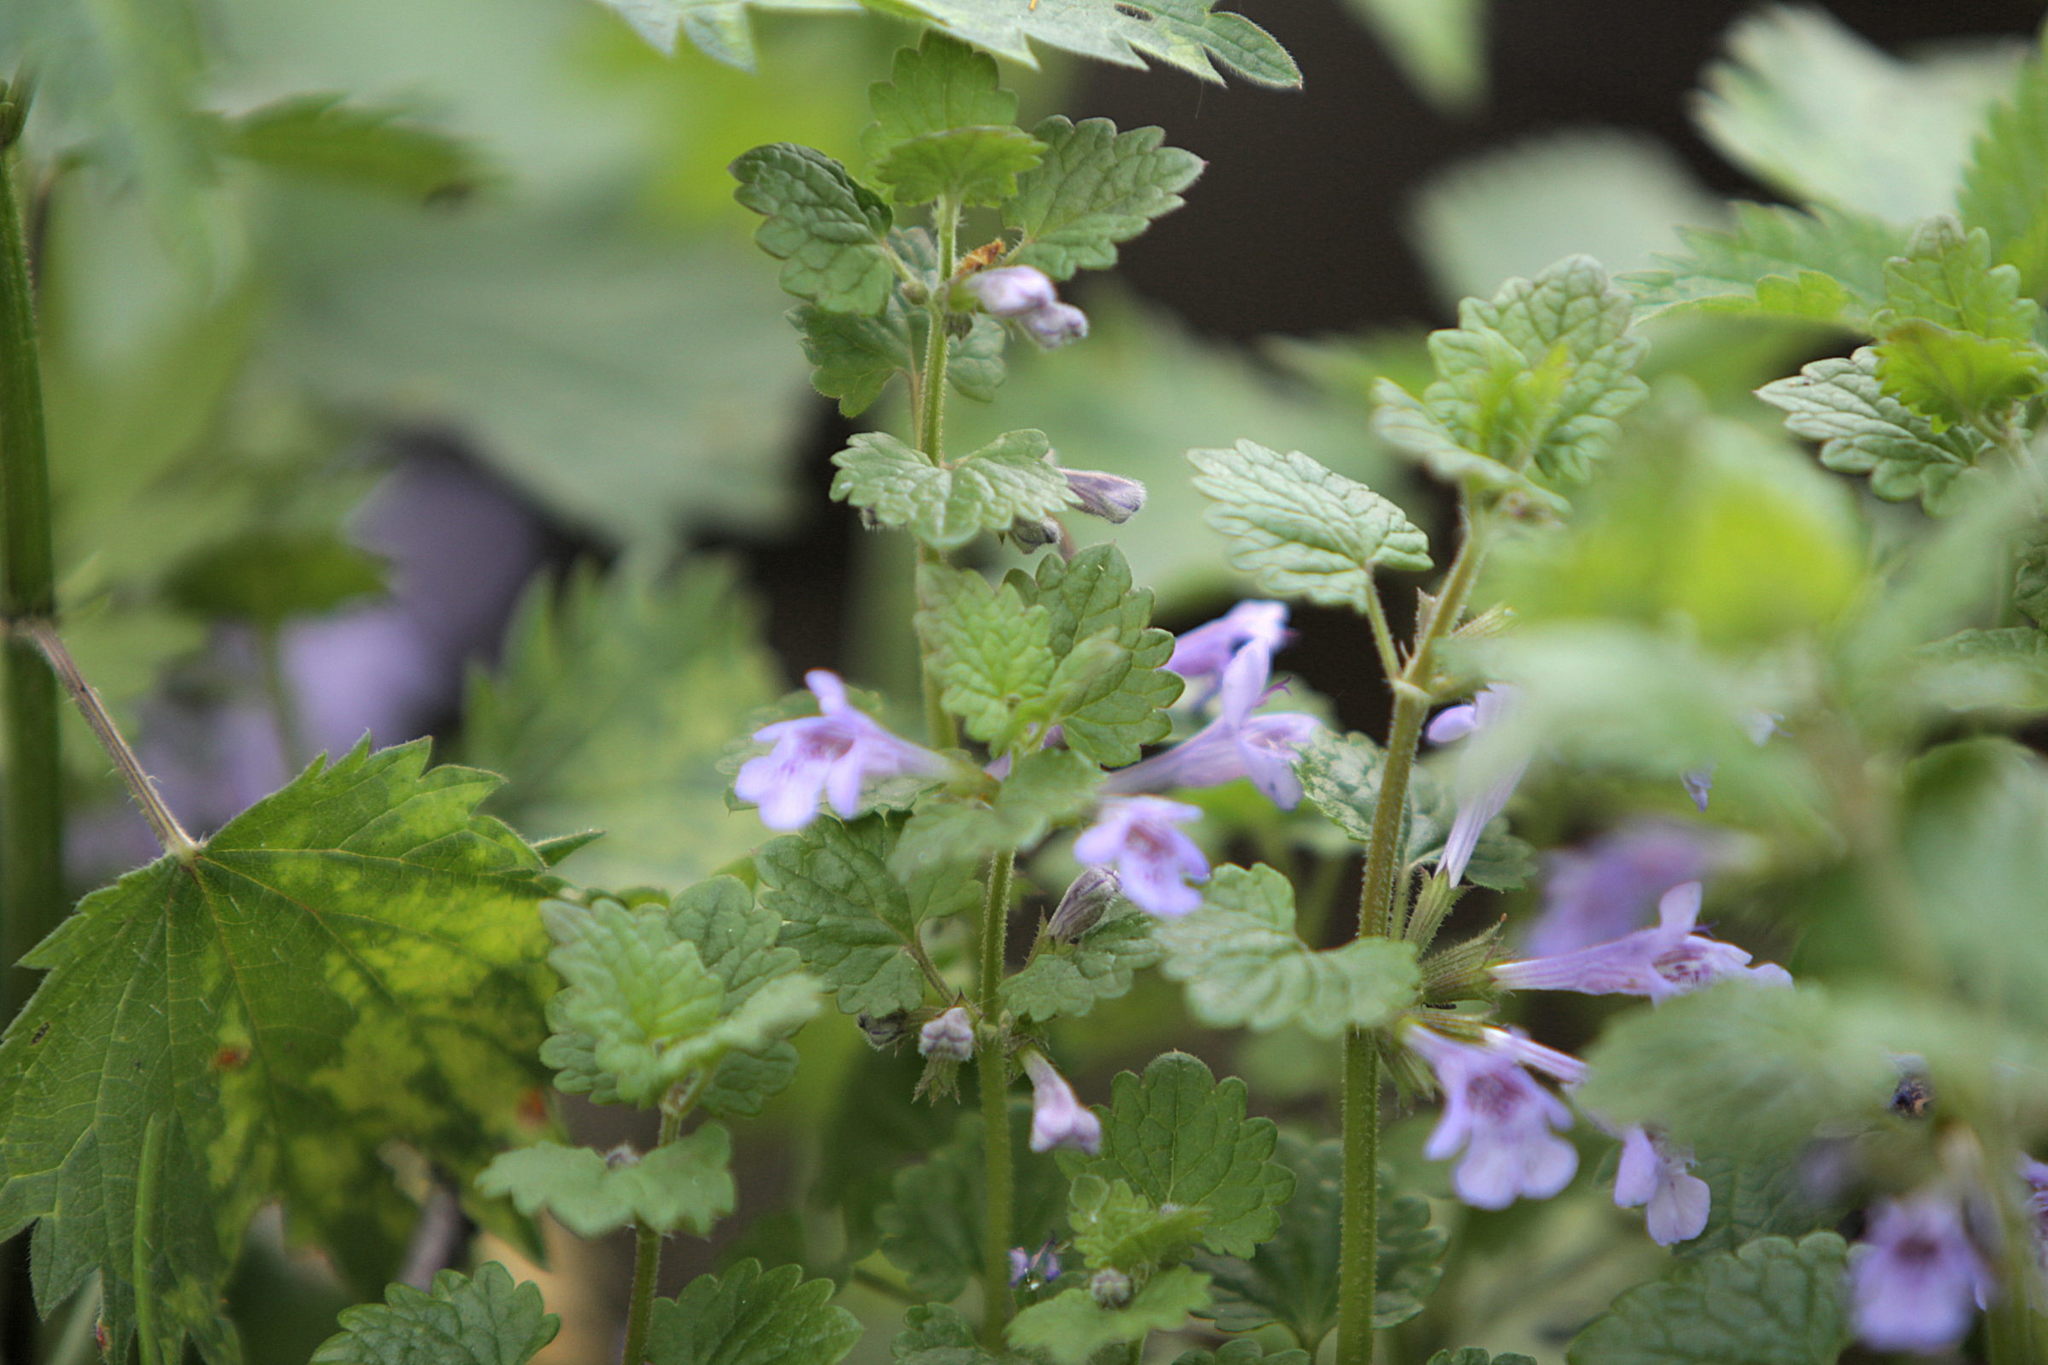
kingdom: Plantae
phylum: Tracheophyta
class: Magnoliopsida
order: Lamiales
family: Lamiaceae
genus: Glechoma
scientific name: Glechoma hederacea
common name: Ground ivy
